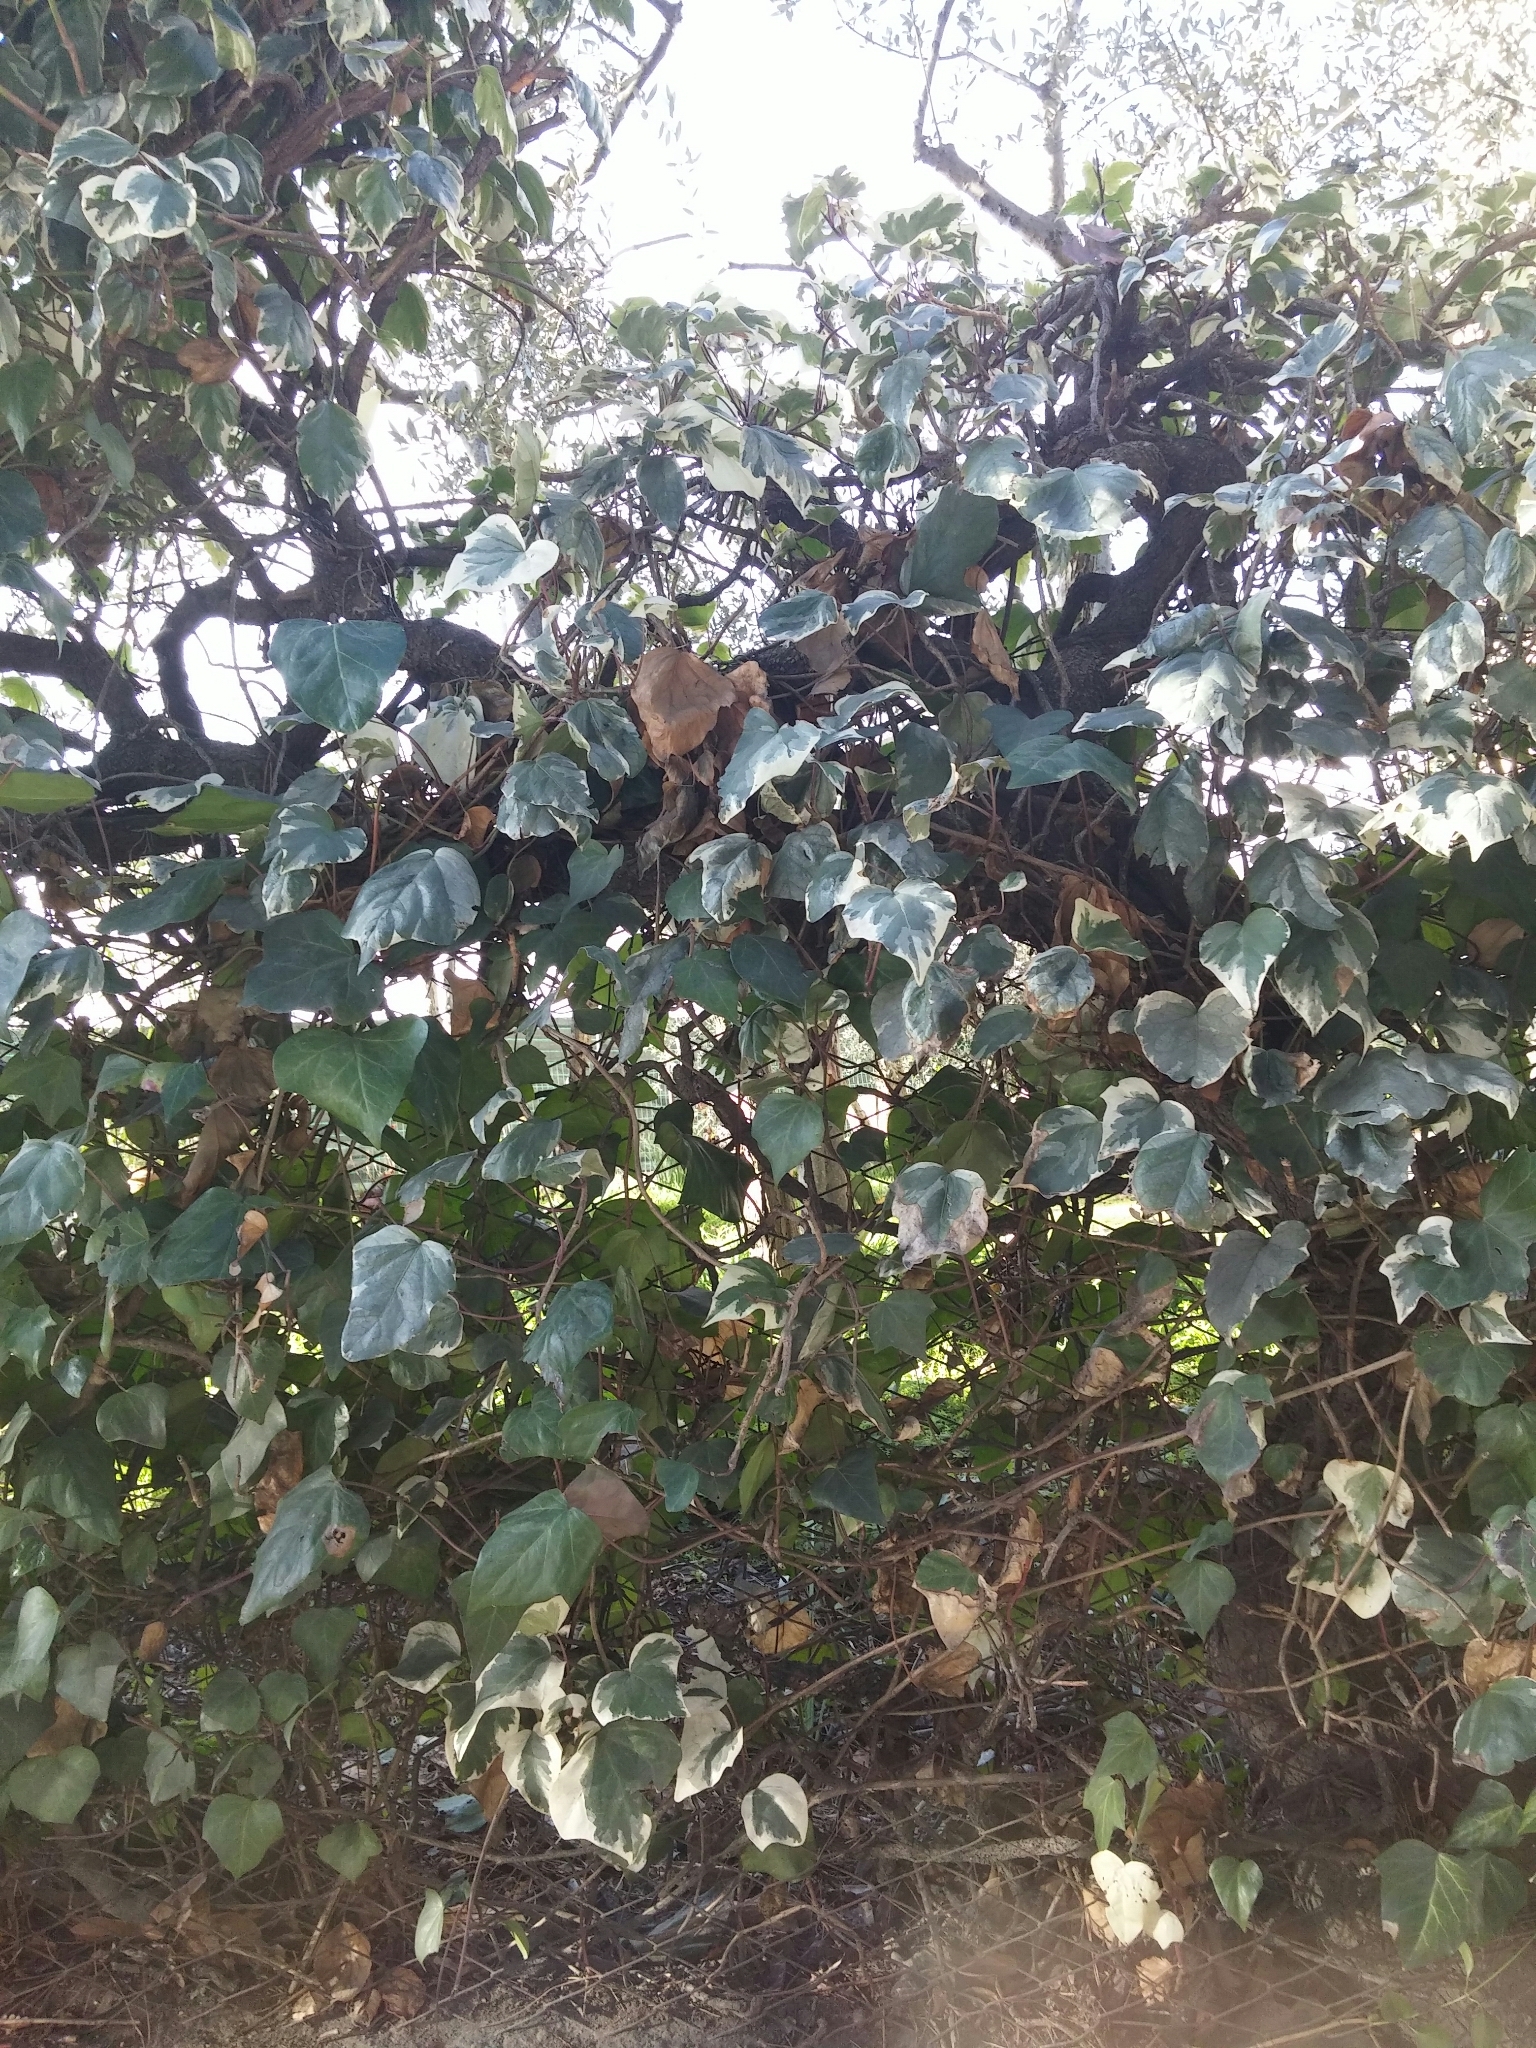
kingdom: Plantae
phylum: Tracheophyta
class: Magnoliopsida
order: Apiales
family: Araliaceae
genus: Hedera
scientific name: Hedera helix
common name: Ivy
